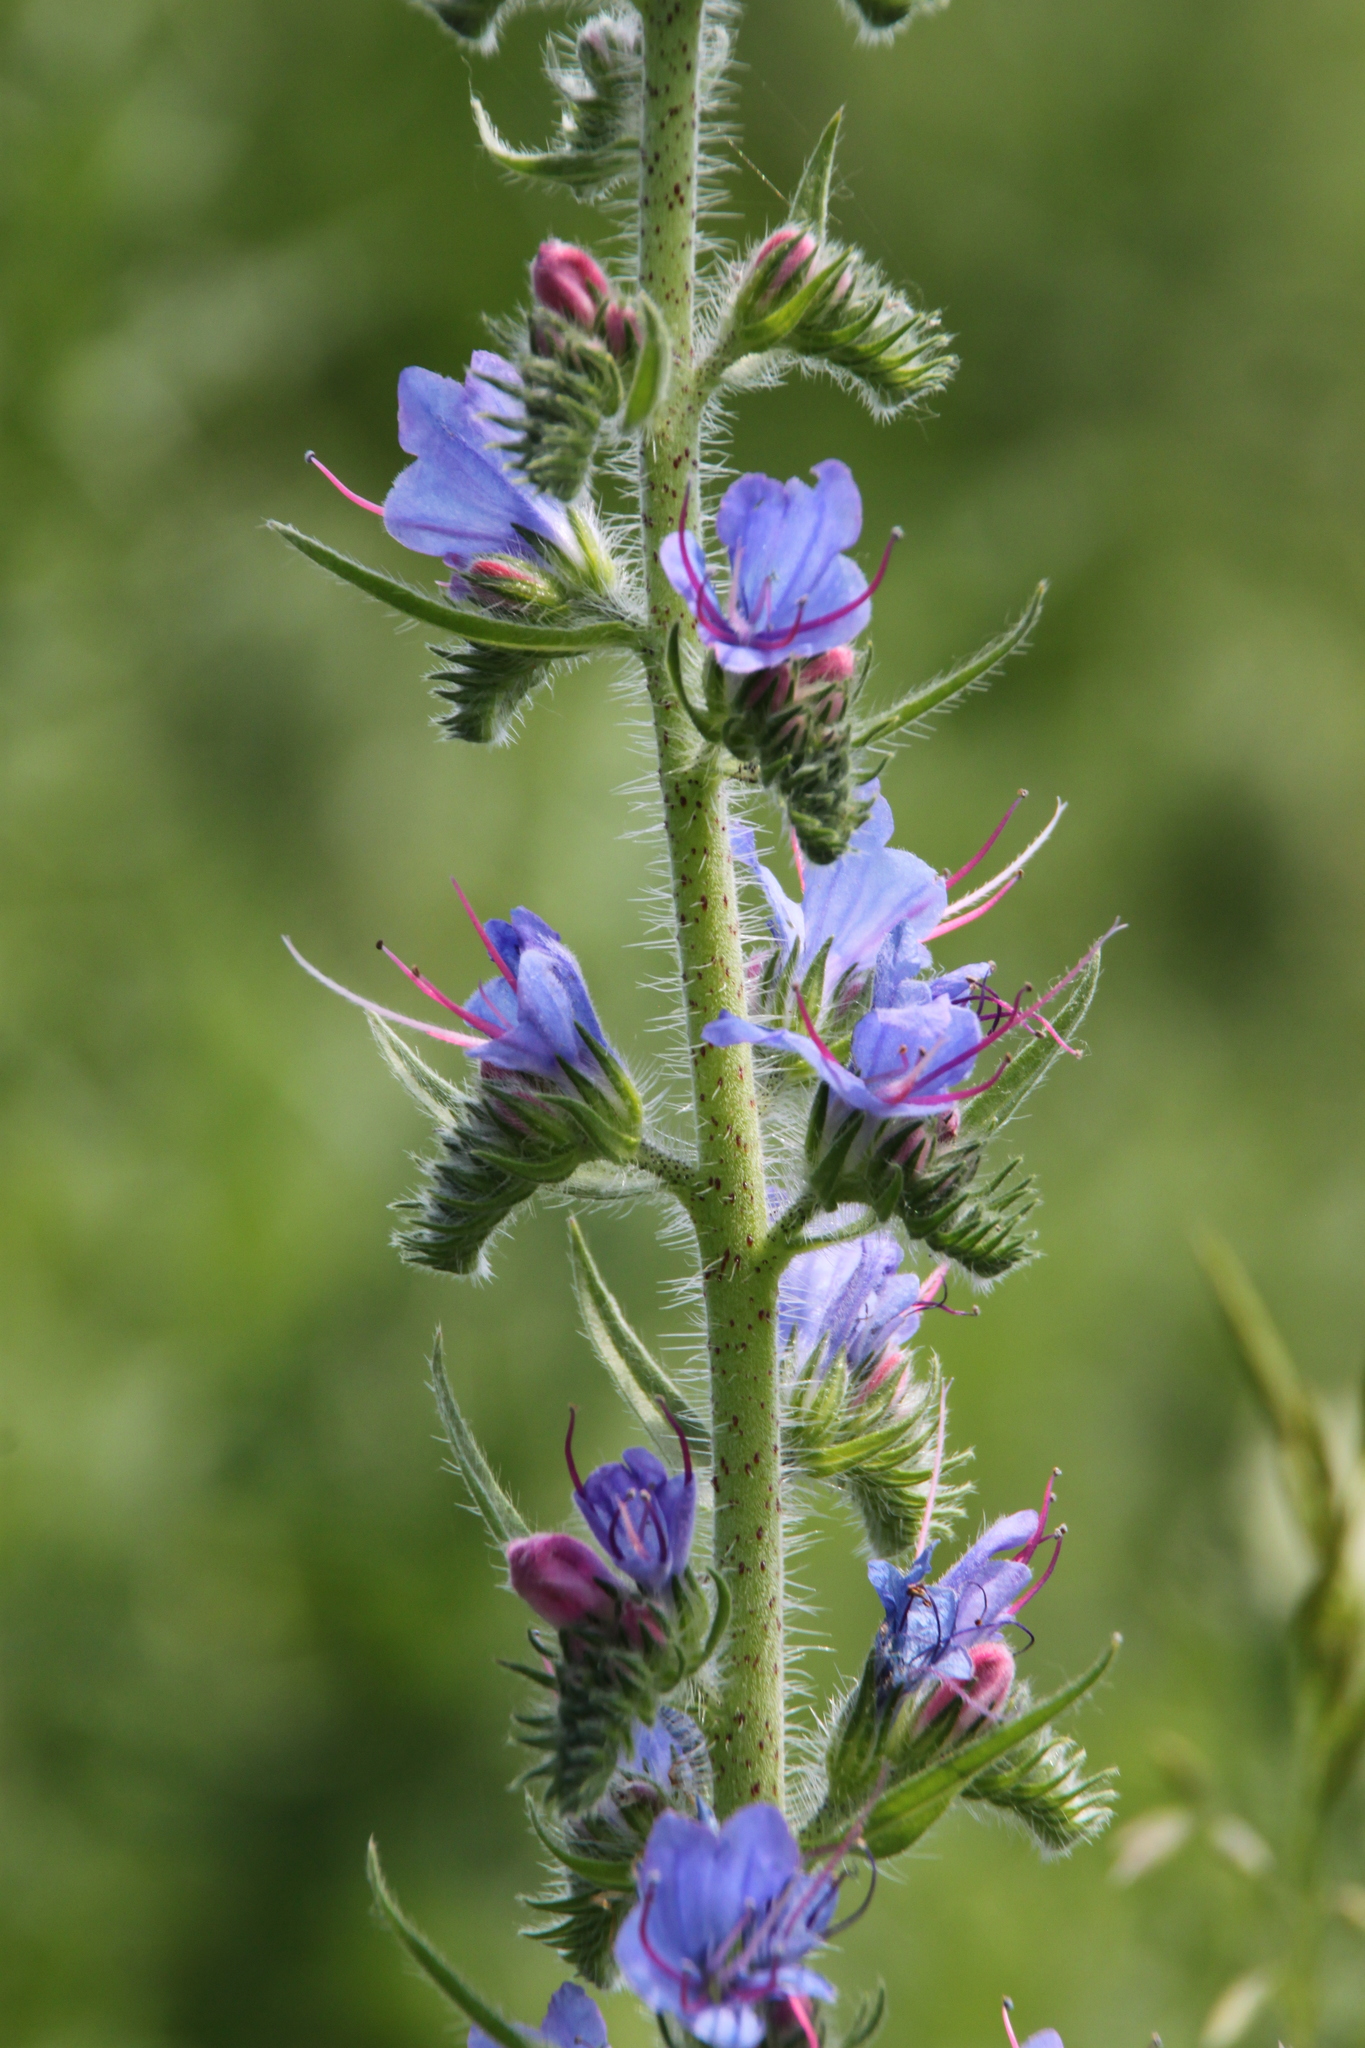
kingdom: Plantae
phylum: Tracheophyta
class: Magnoliopsida
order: Boraginales
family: Boraginaceae
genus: Echium
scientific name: Echium vulgare
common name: Common viper's bugloss
